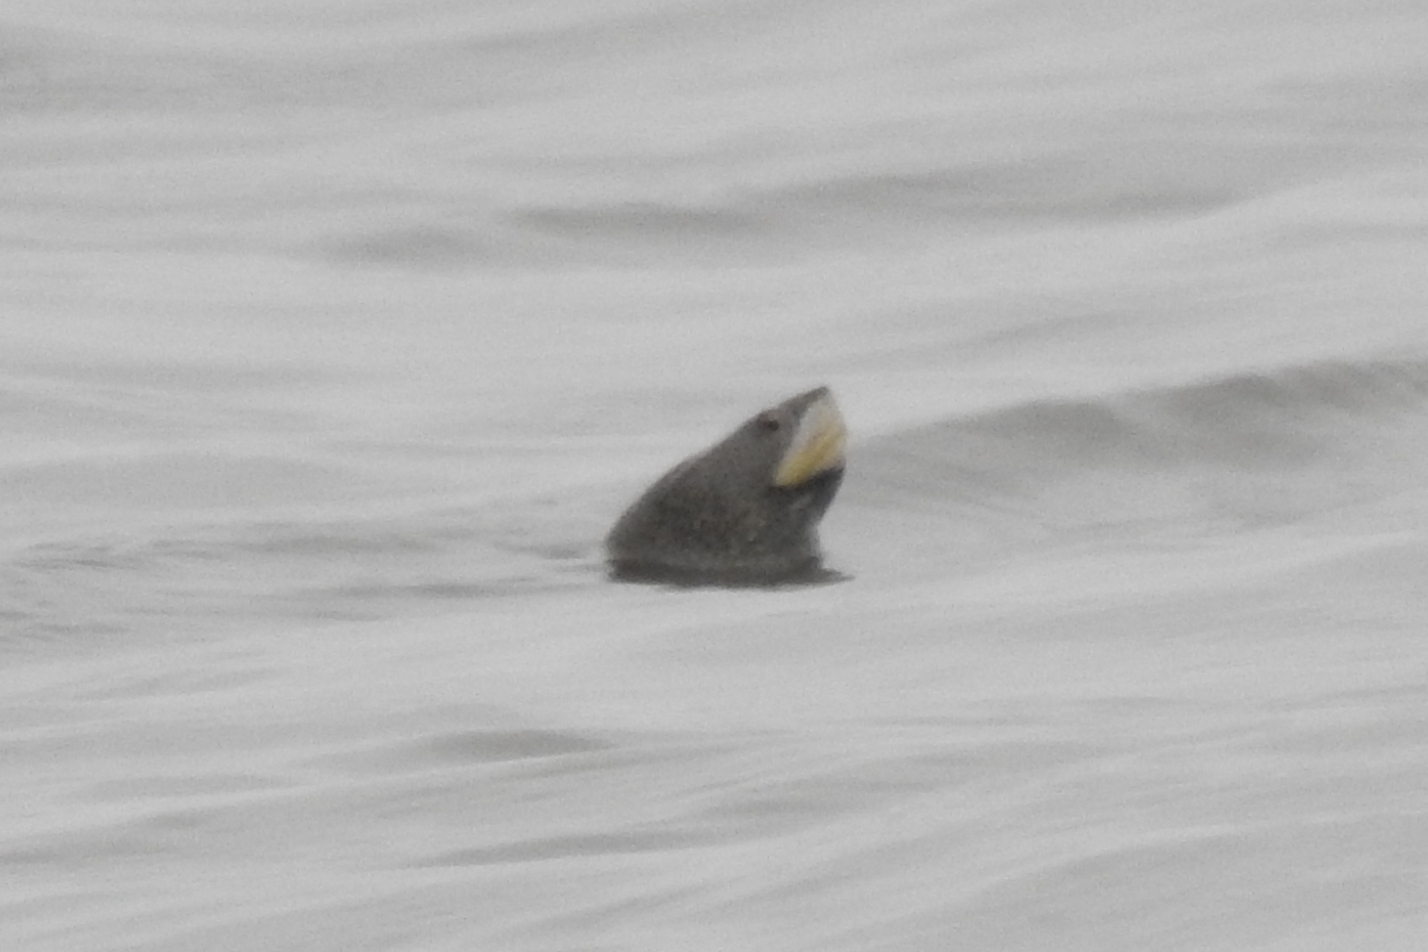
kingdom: Animalia
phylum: Chordata
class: Testudines
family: Emydidae
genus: Malaclemys
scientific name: Malaclemys terrapin
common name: Diamondback terrapin
